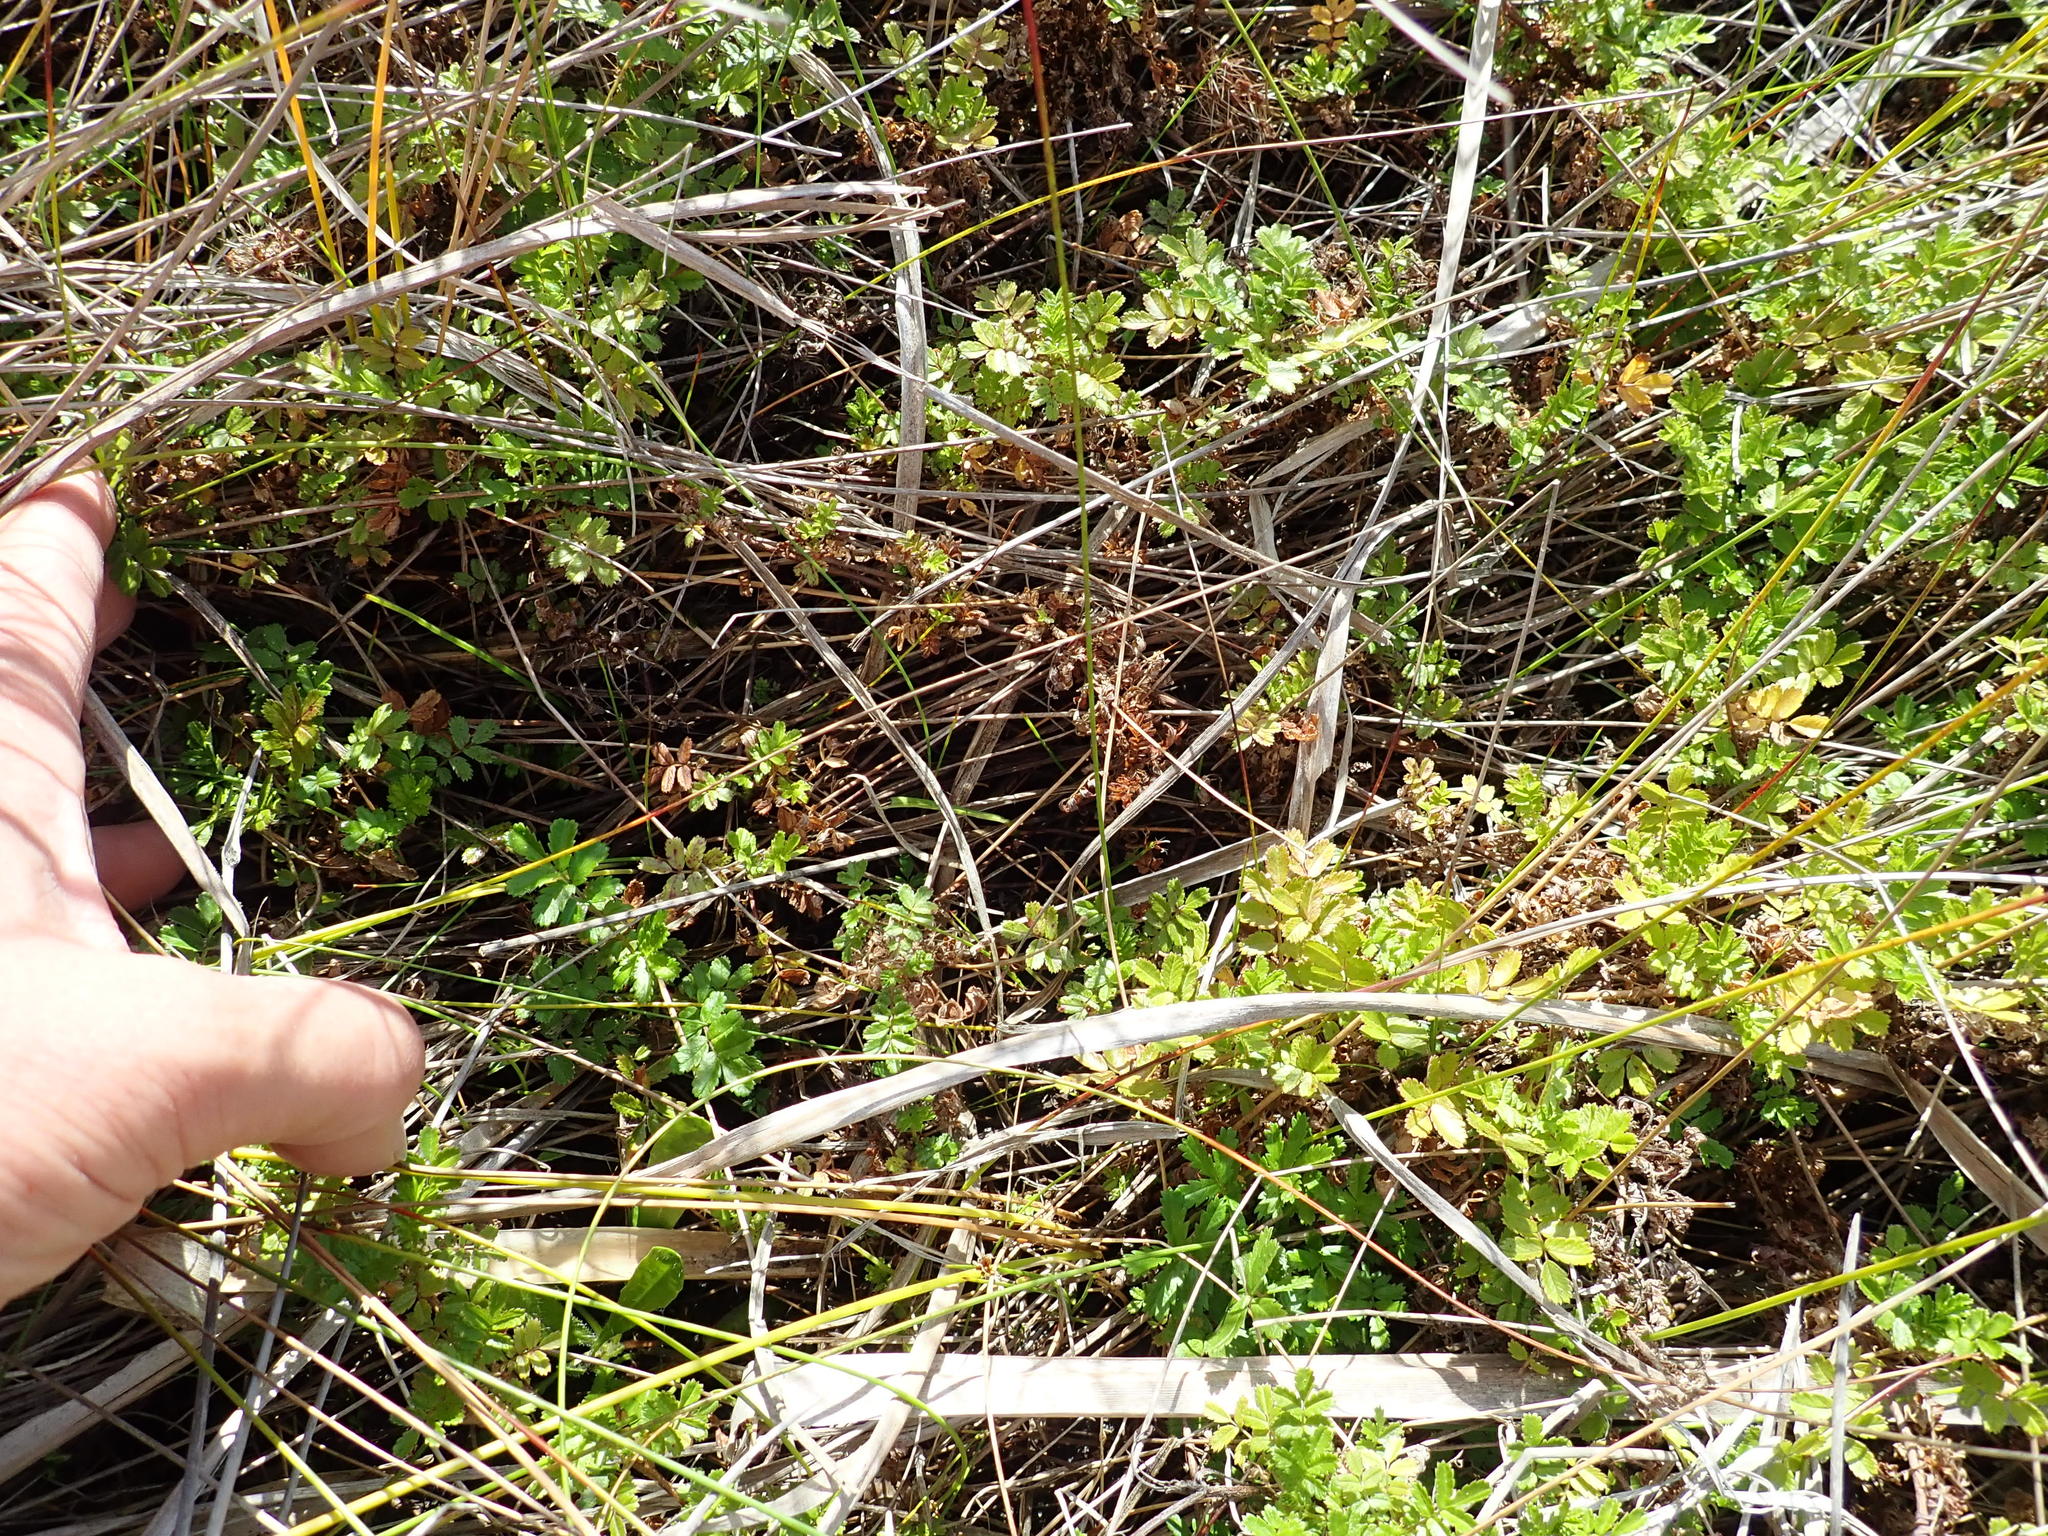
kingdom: Plantae
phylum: Tracheophyta
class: Magnoliopsida
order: Rosales
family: Rosaceae
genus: Acaena
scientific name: Acaena novae-zelandiae
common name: Pirri-pirri-bur
